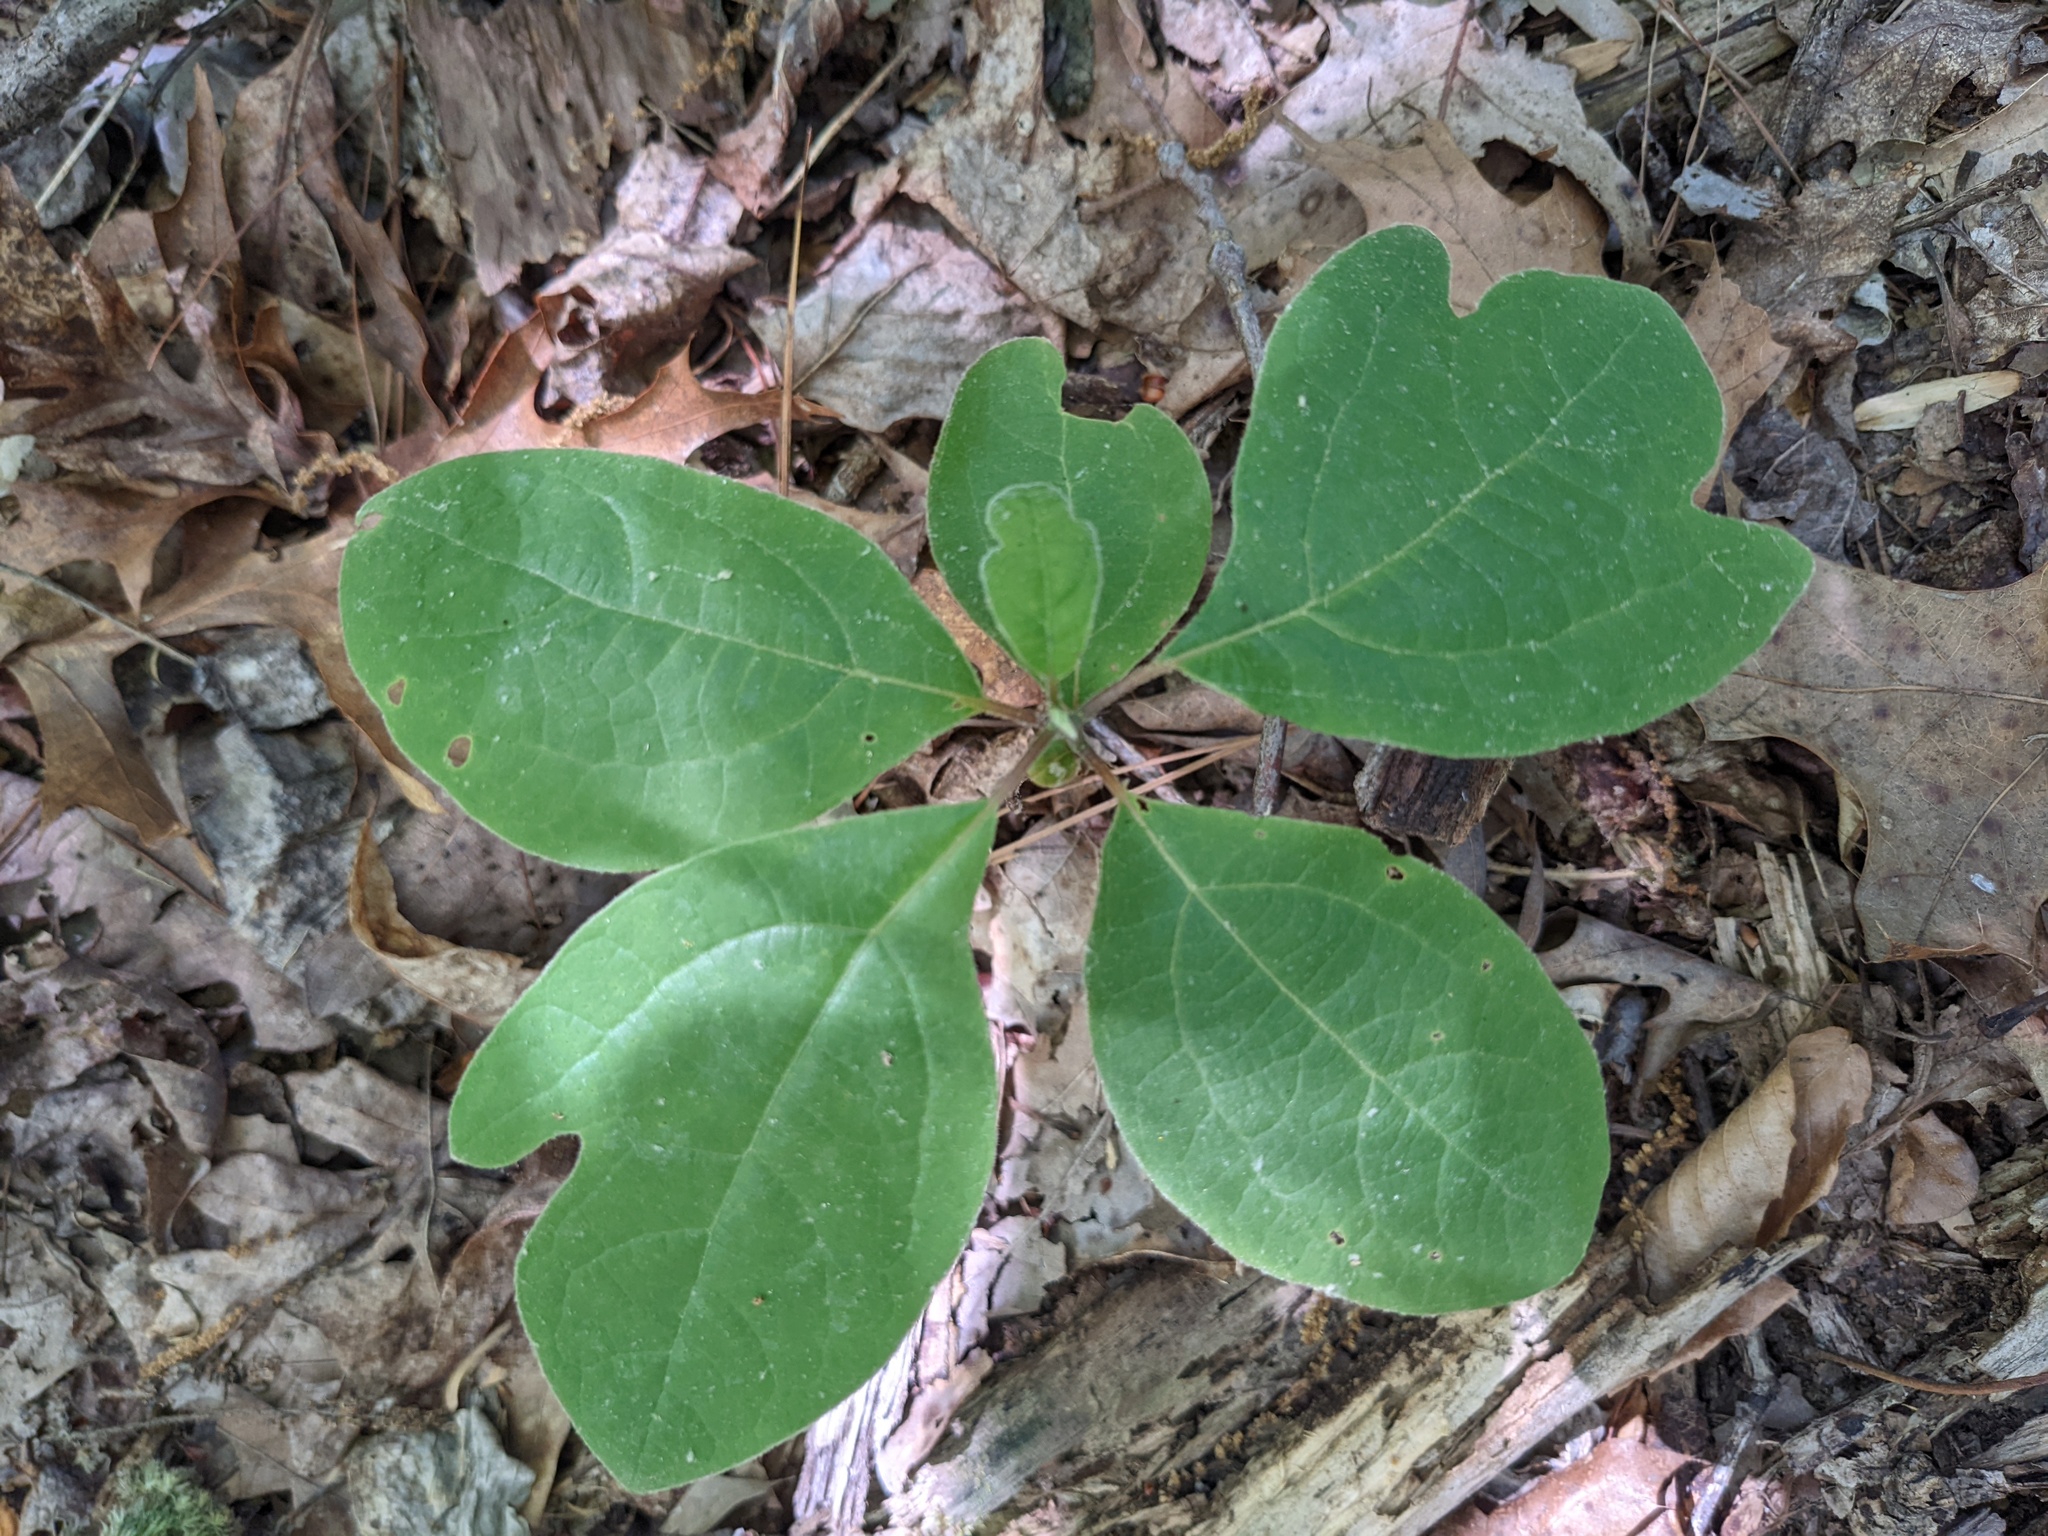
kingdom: Plantae
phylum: Tracheophyta
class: Magnoliopsida
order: Laurales
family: Lauraceae
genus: Sassafras
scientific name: Sassafras albidum
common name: Sassafras
